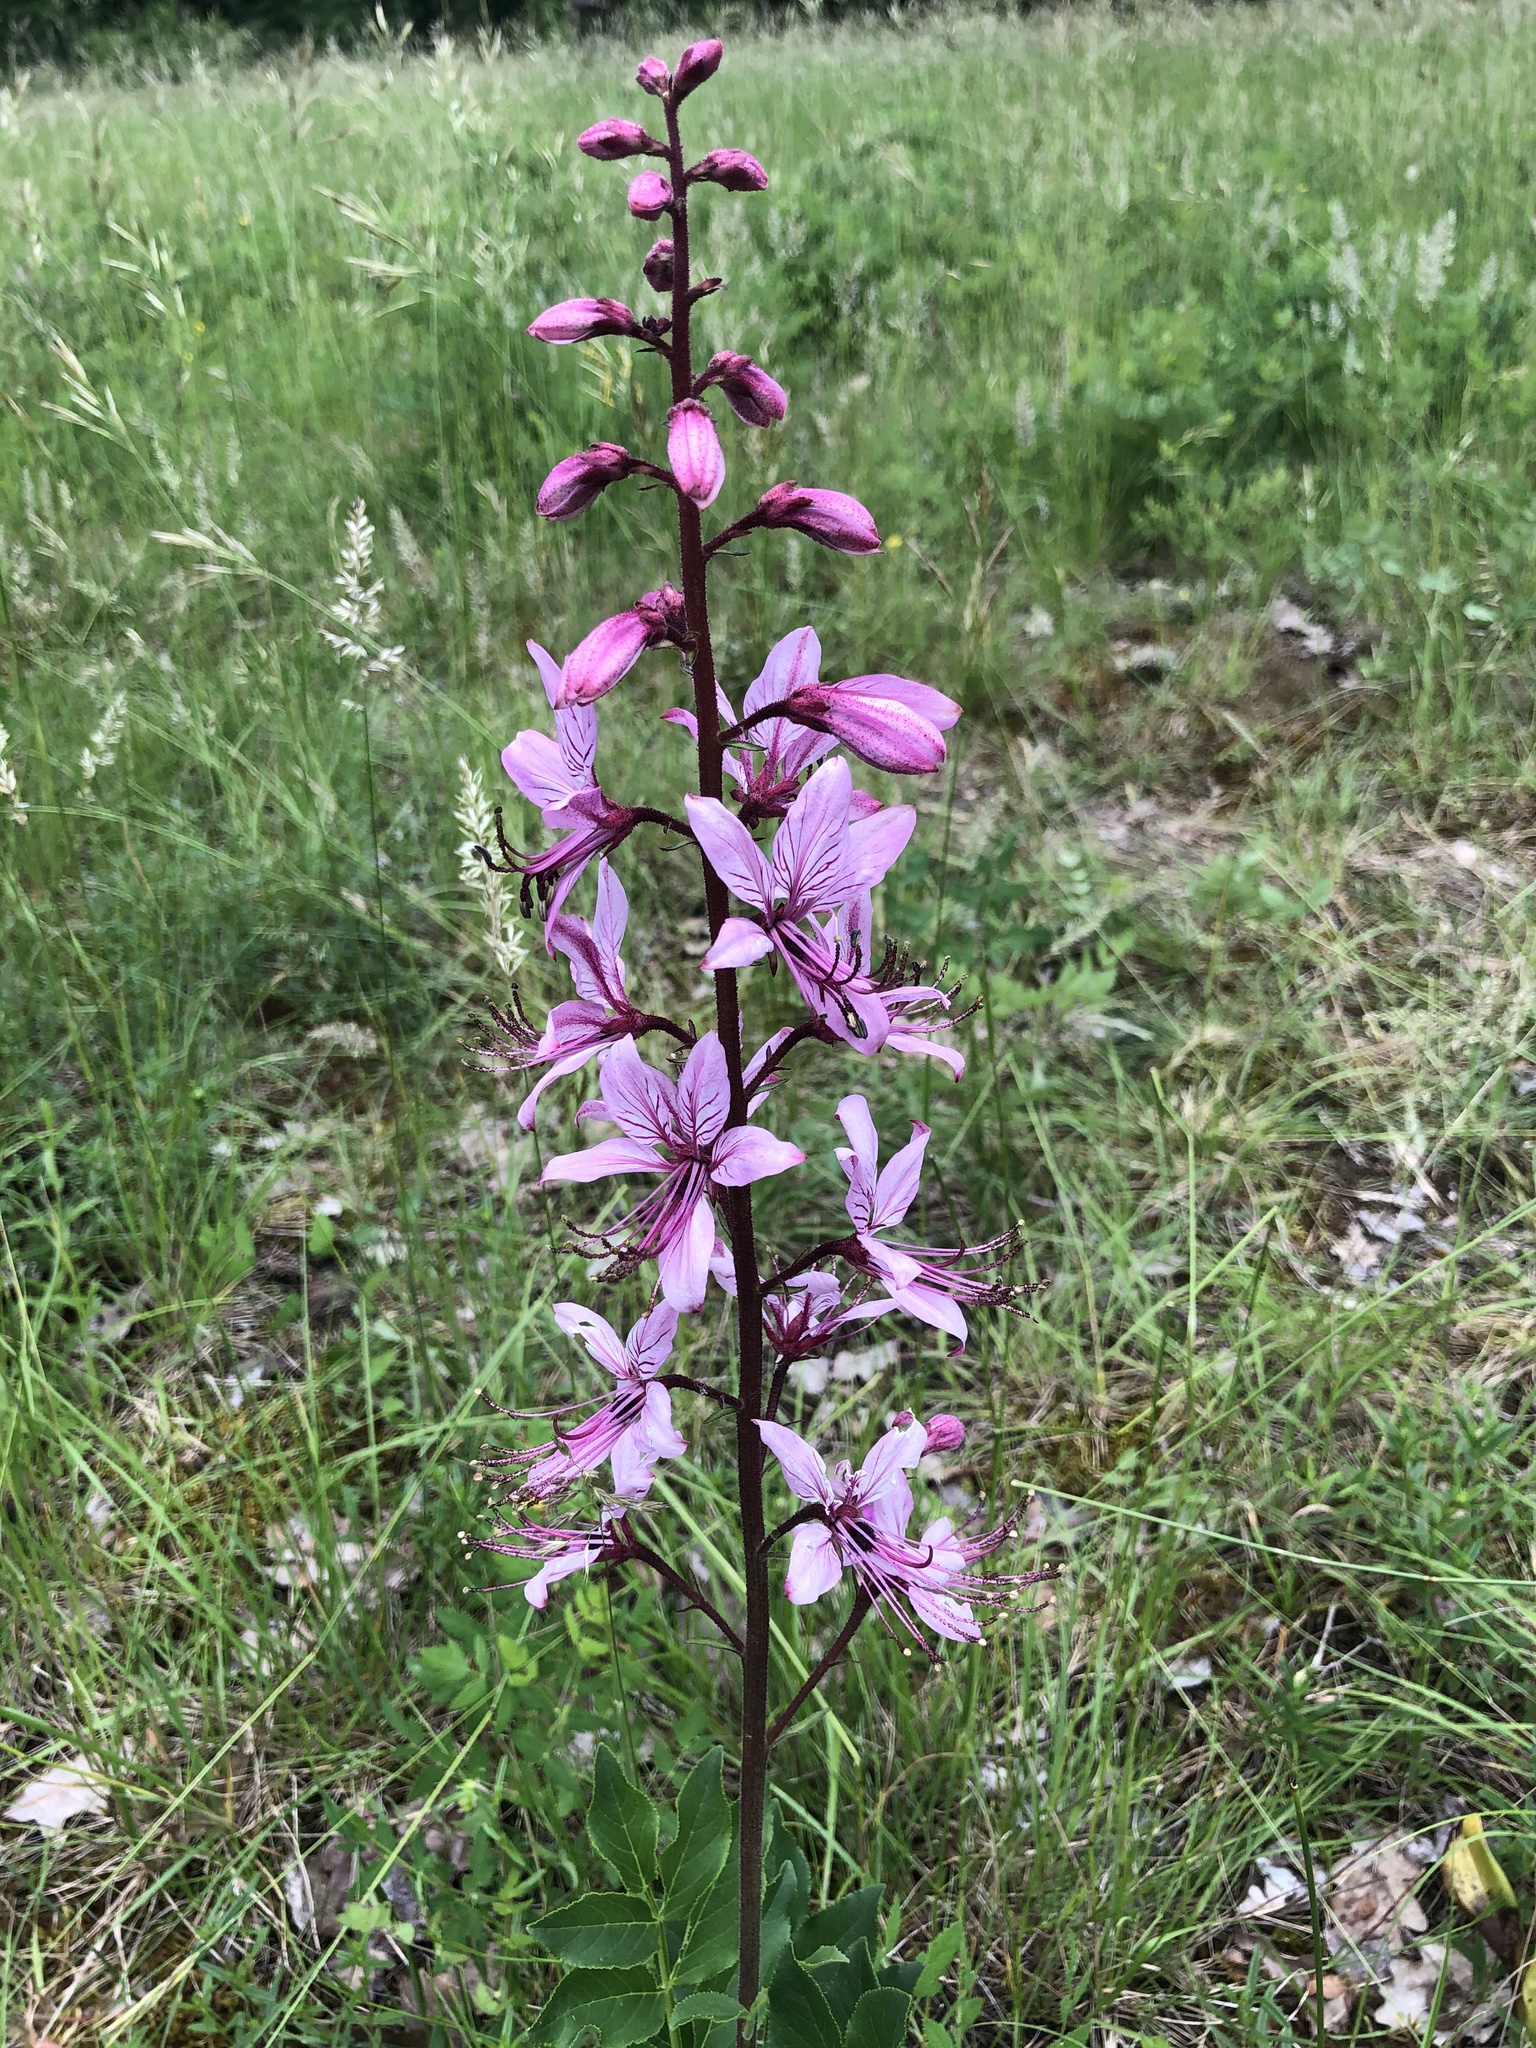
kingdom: Plantae
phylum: Tracheophyta
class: Magnoliopsida
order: Sapindales
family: Rutaceae
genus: Dictamnus
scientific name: Dictamnus albus
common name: Gasplant
